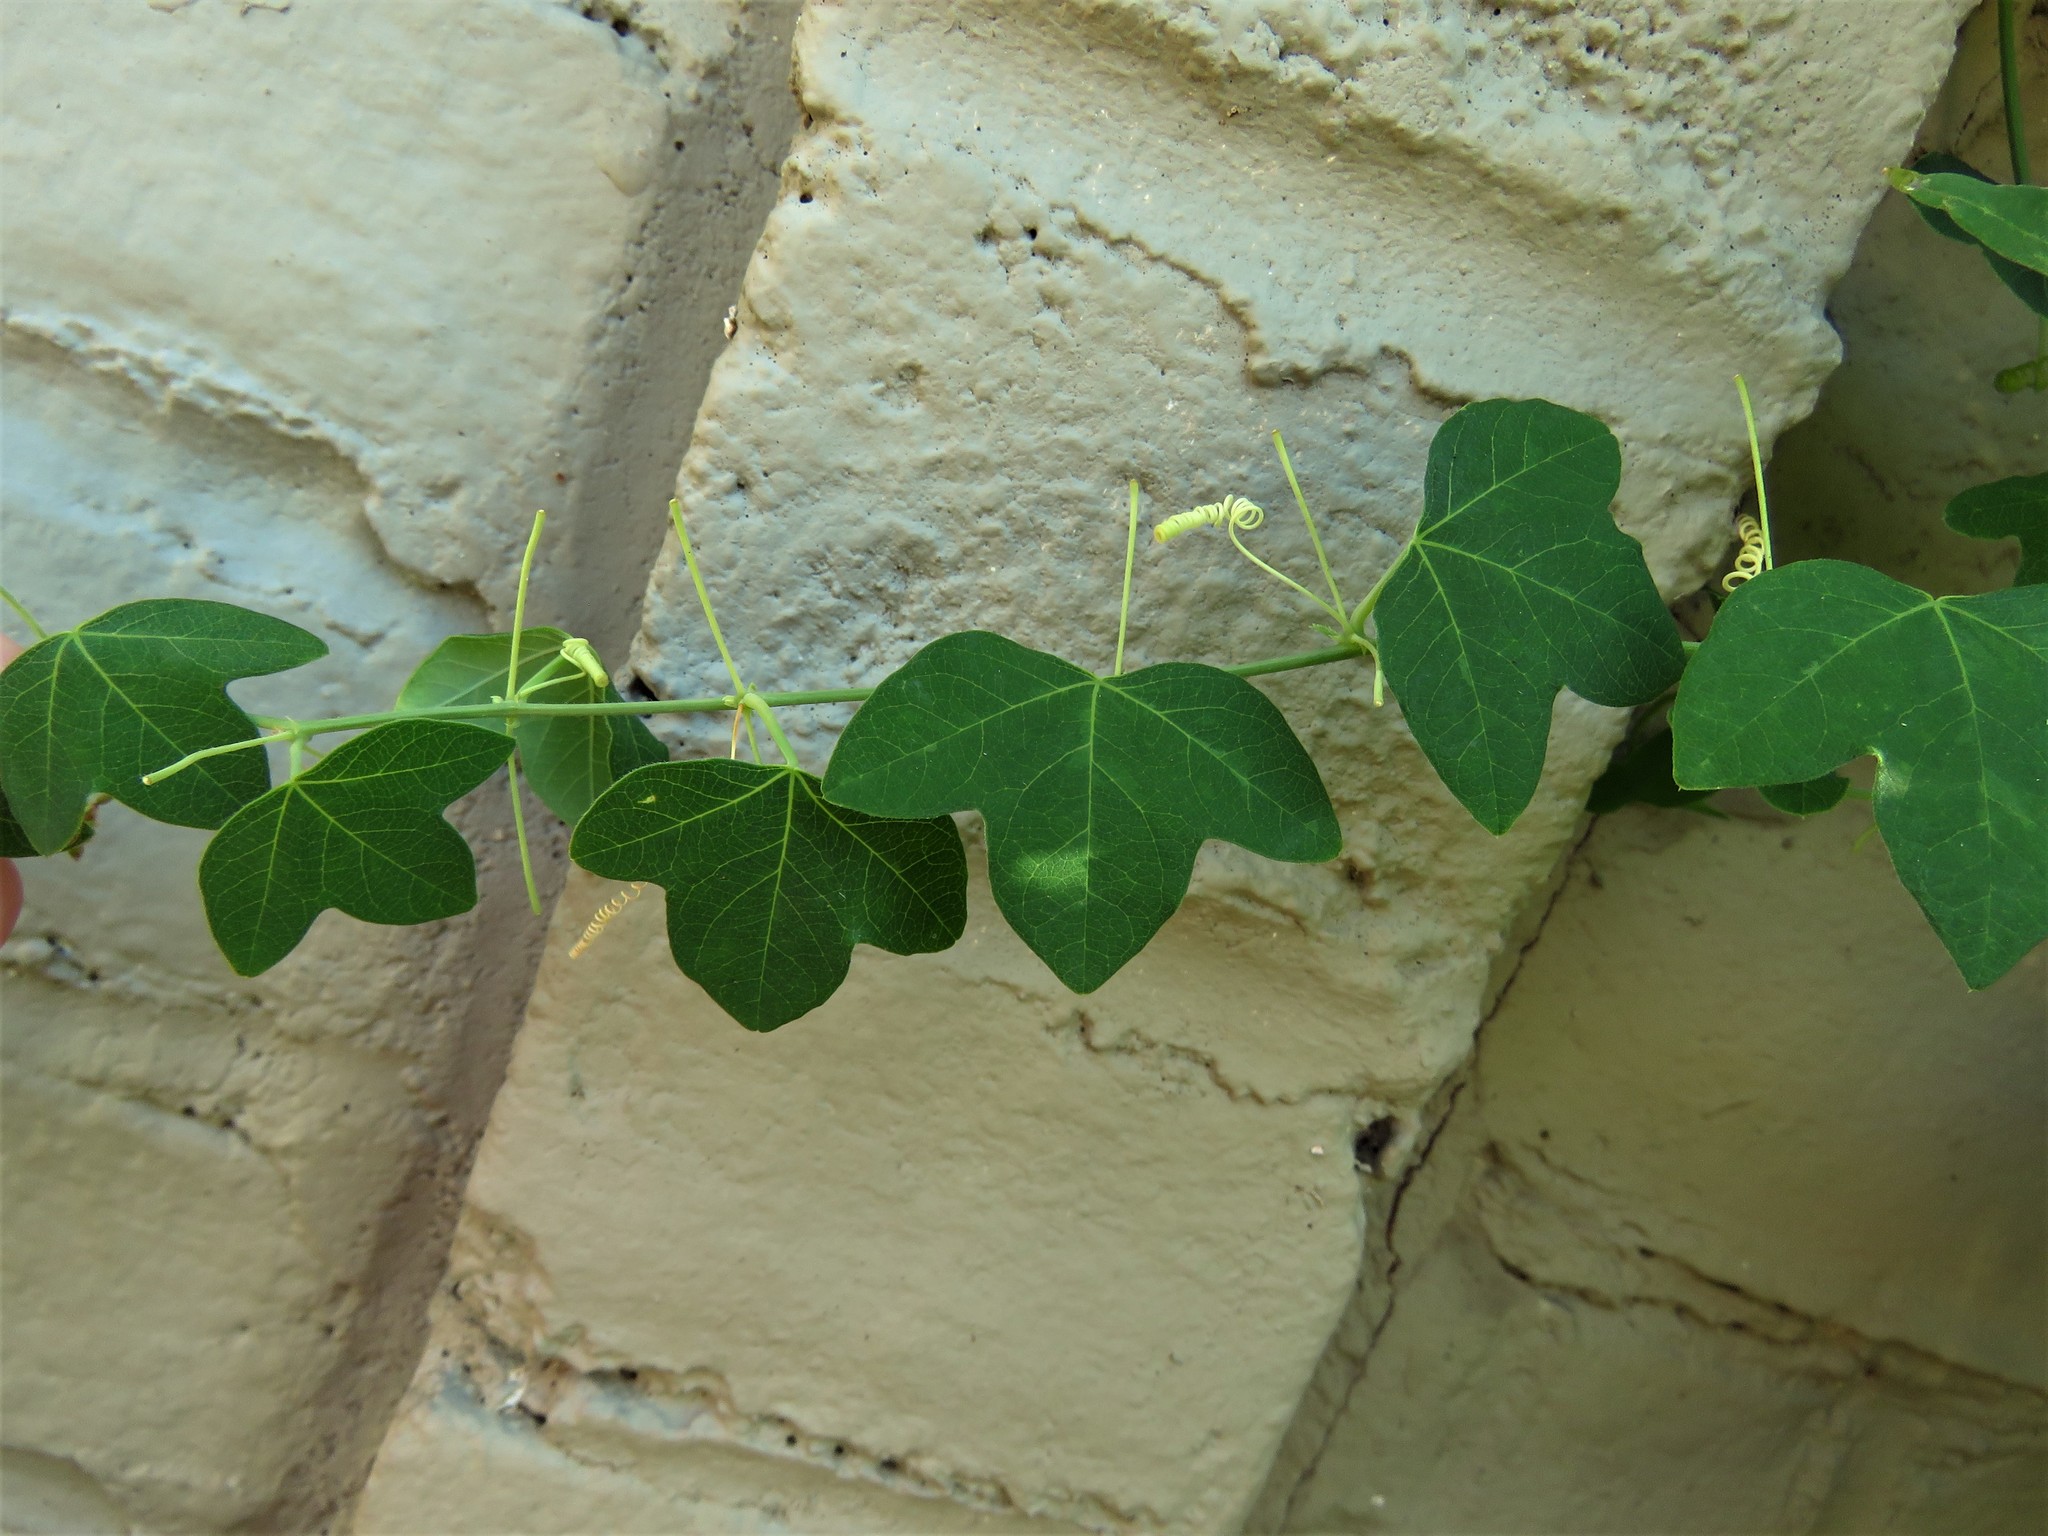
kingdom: Plantae
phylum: Tracheophyta
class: Magnoliopsida
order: Malpighiales
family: Passifloraceae
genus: Passiflora
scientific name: Passiflora lutea
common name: Yellow passionflower
